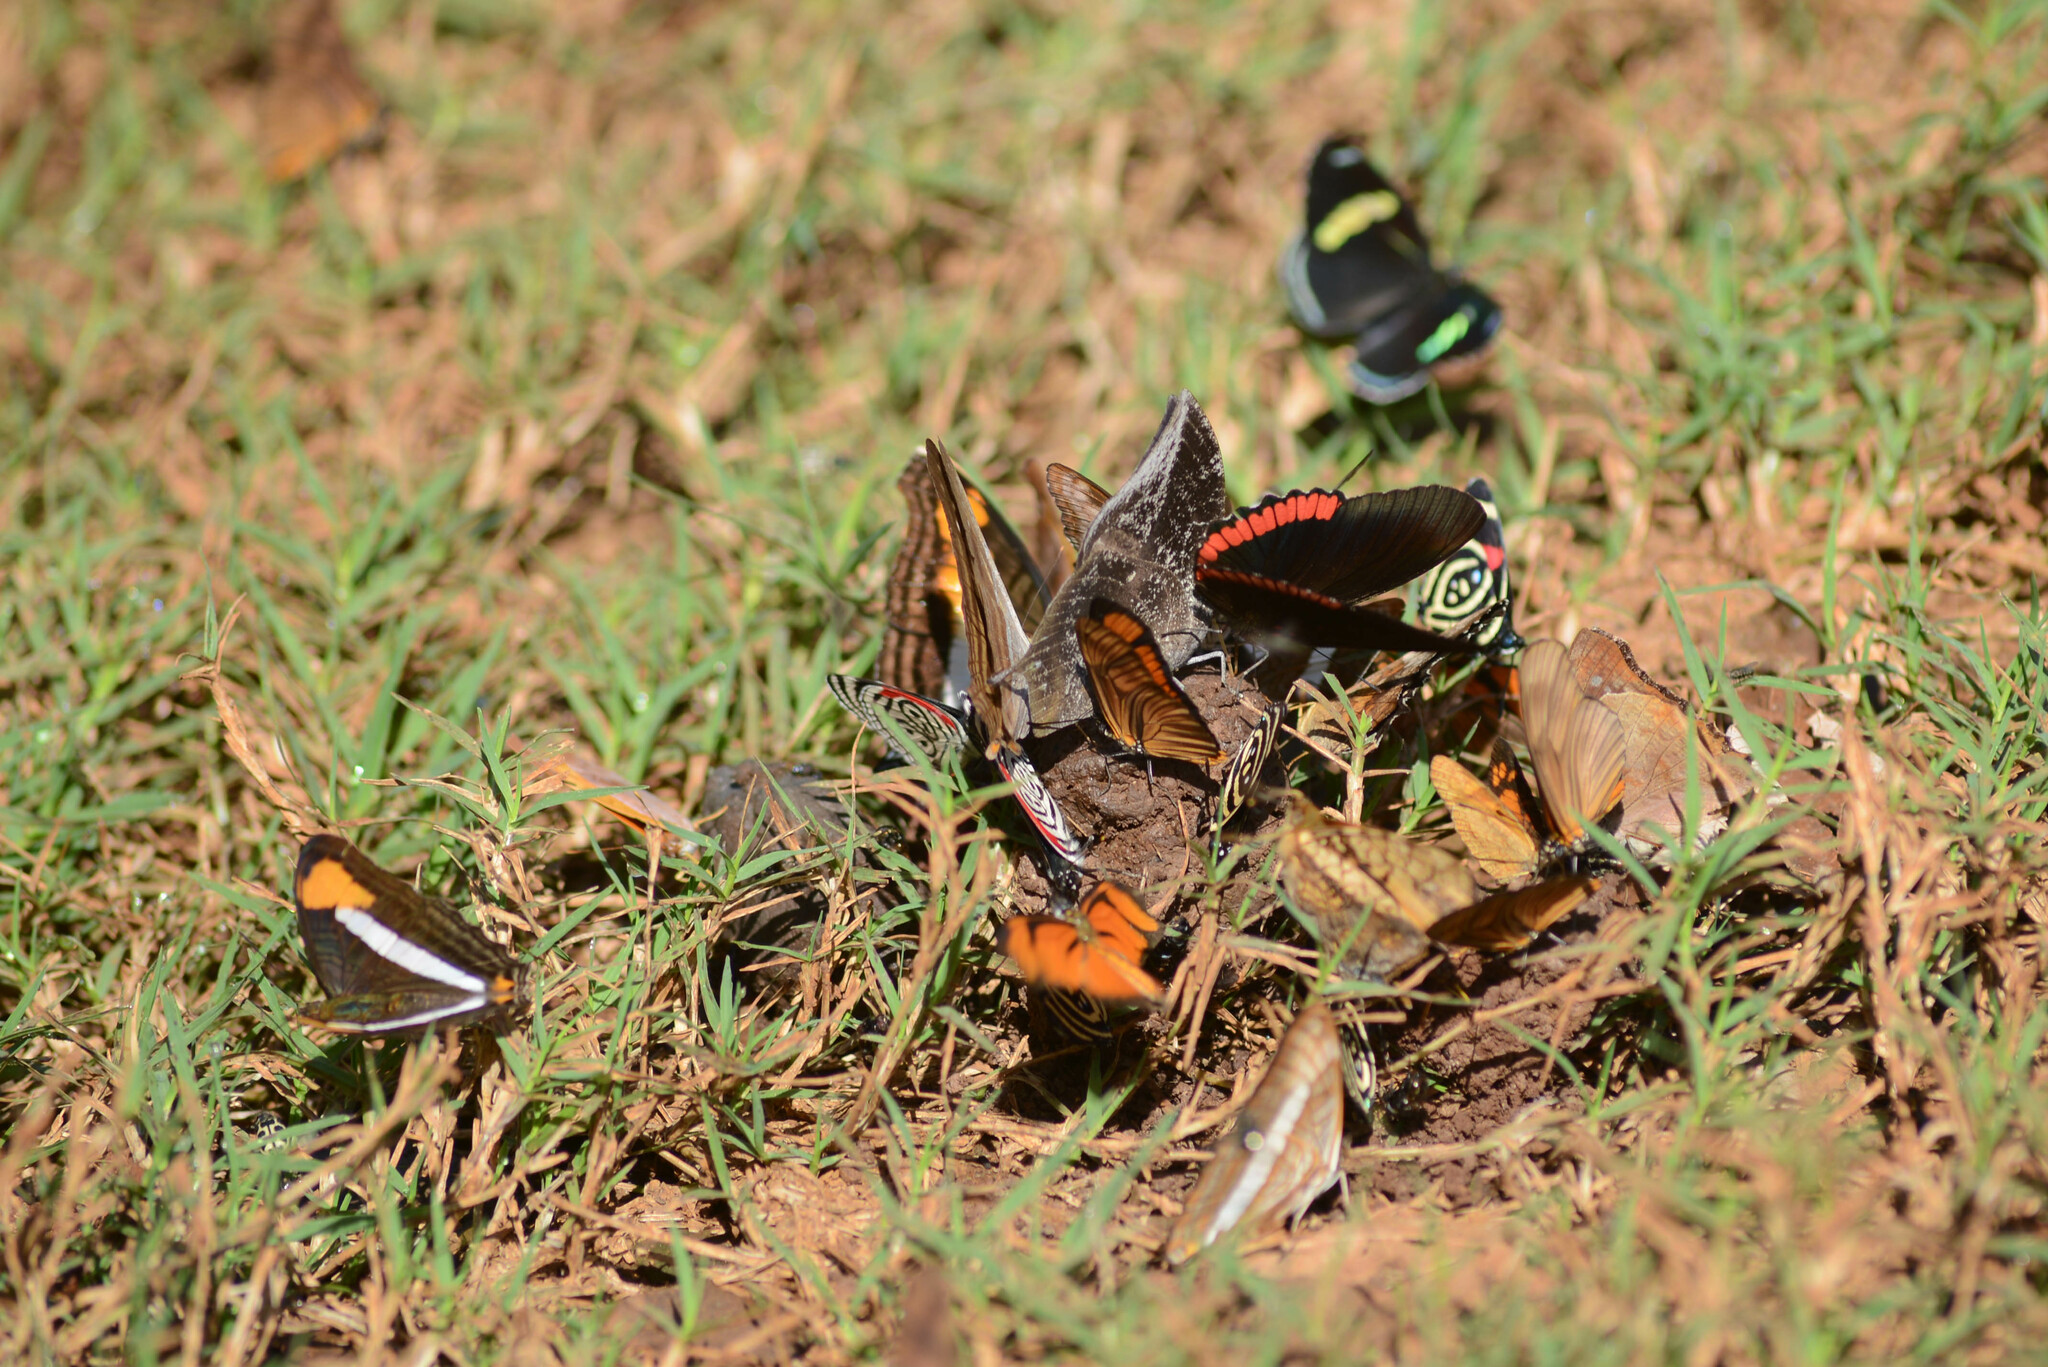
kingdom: Animalia
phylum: Arthropoda
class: Insecta
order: Lepidoptera
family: Sesiidae
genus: Sesia
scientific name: Sesia Biblis hyperia
